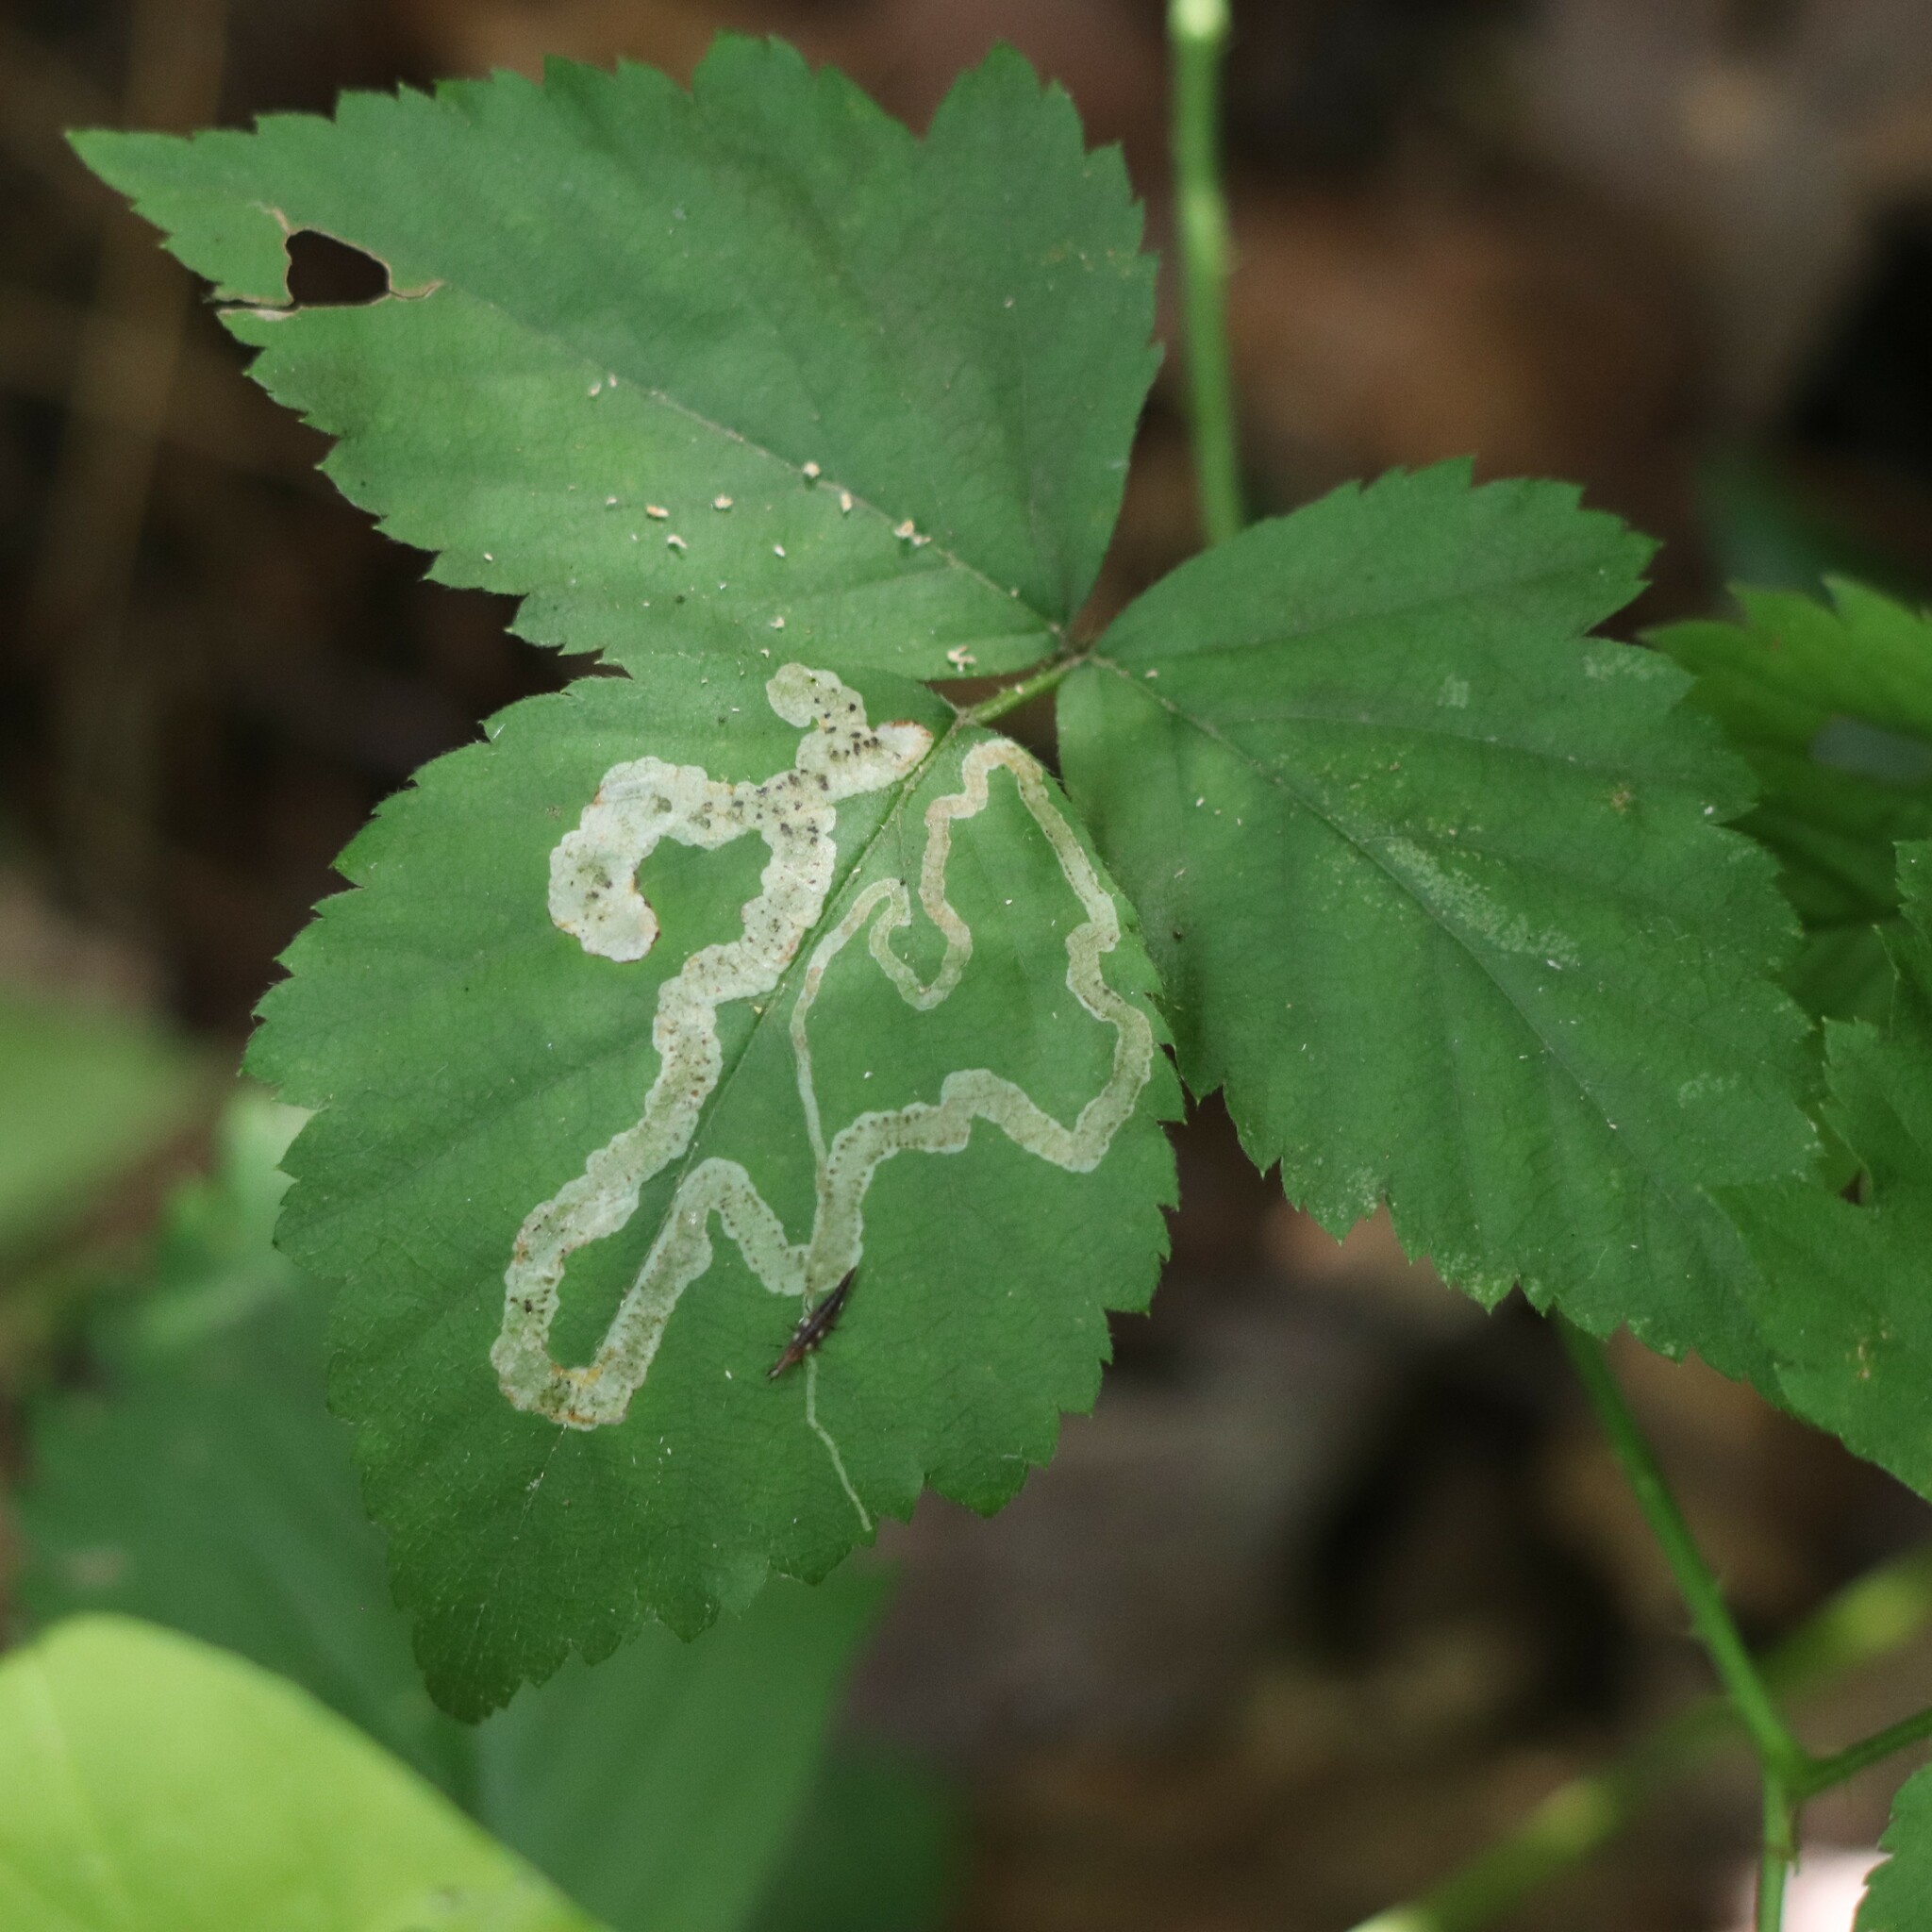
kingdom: Animalia
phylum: Arthropoda
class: Insecta
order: Diptera
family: Agromyzidae
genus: Agromyza
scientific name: Agromyza vockerothi
